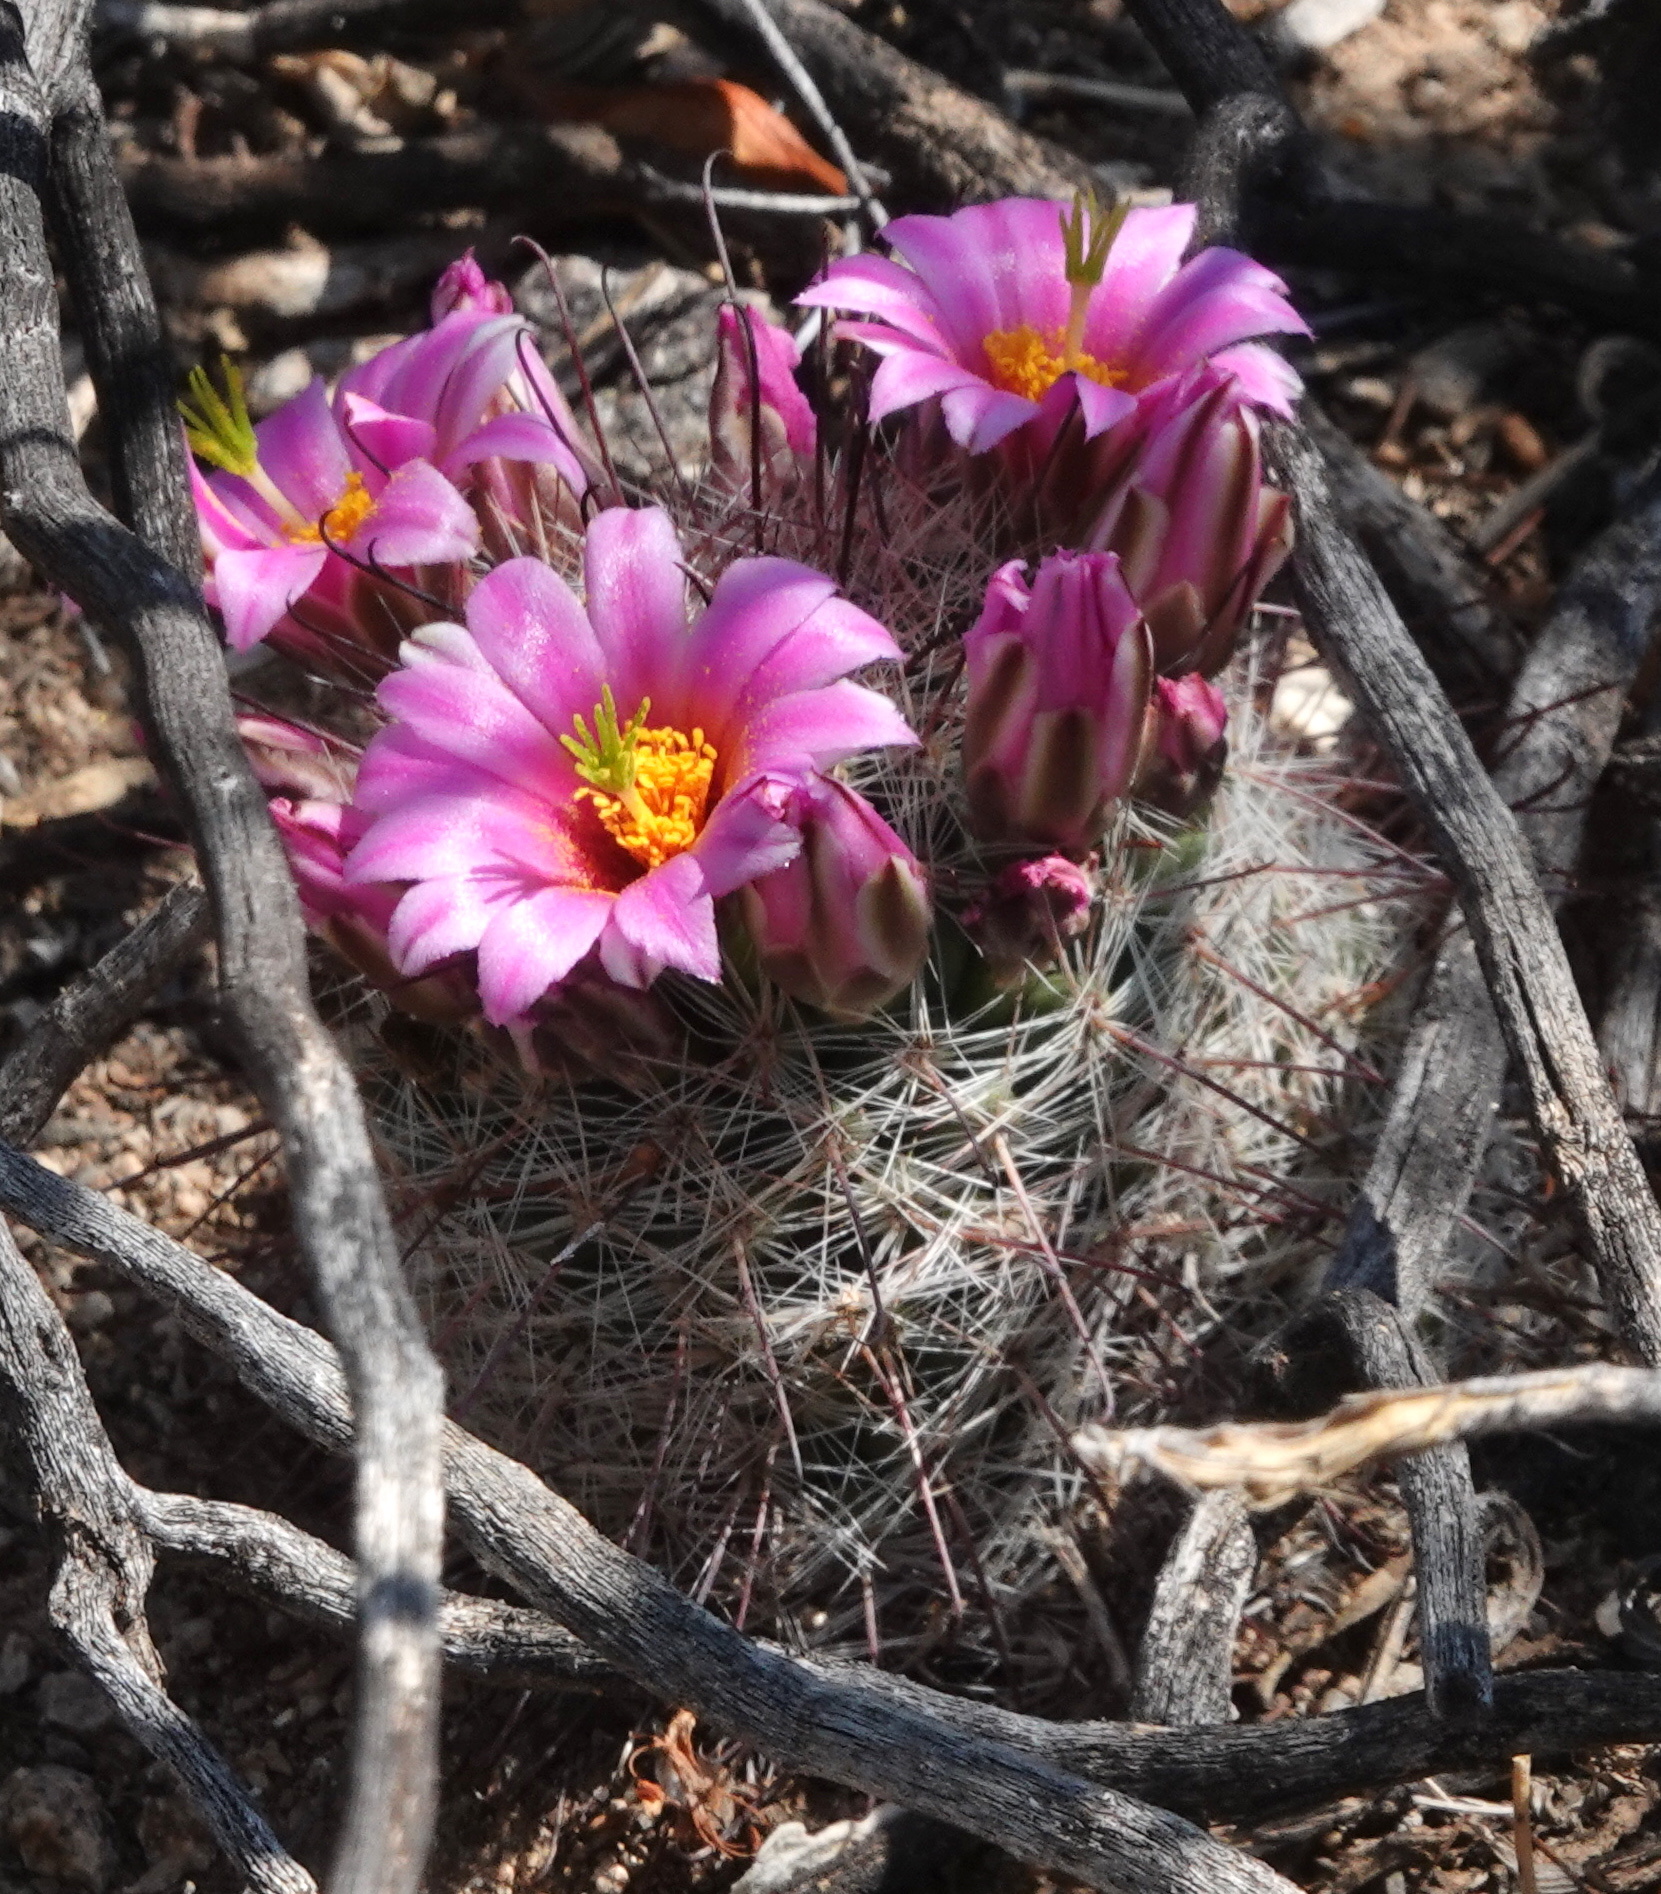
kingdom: Plantae
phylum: Tracheophyta
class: Magnoliopsida
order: Caryophyllales
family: Cactaceae
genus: Cochemiea
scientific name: Cochemiea grahamii
